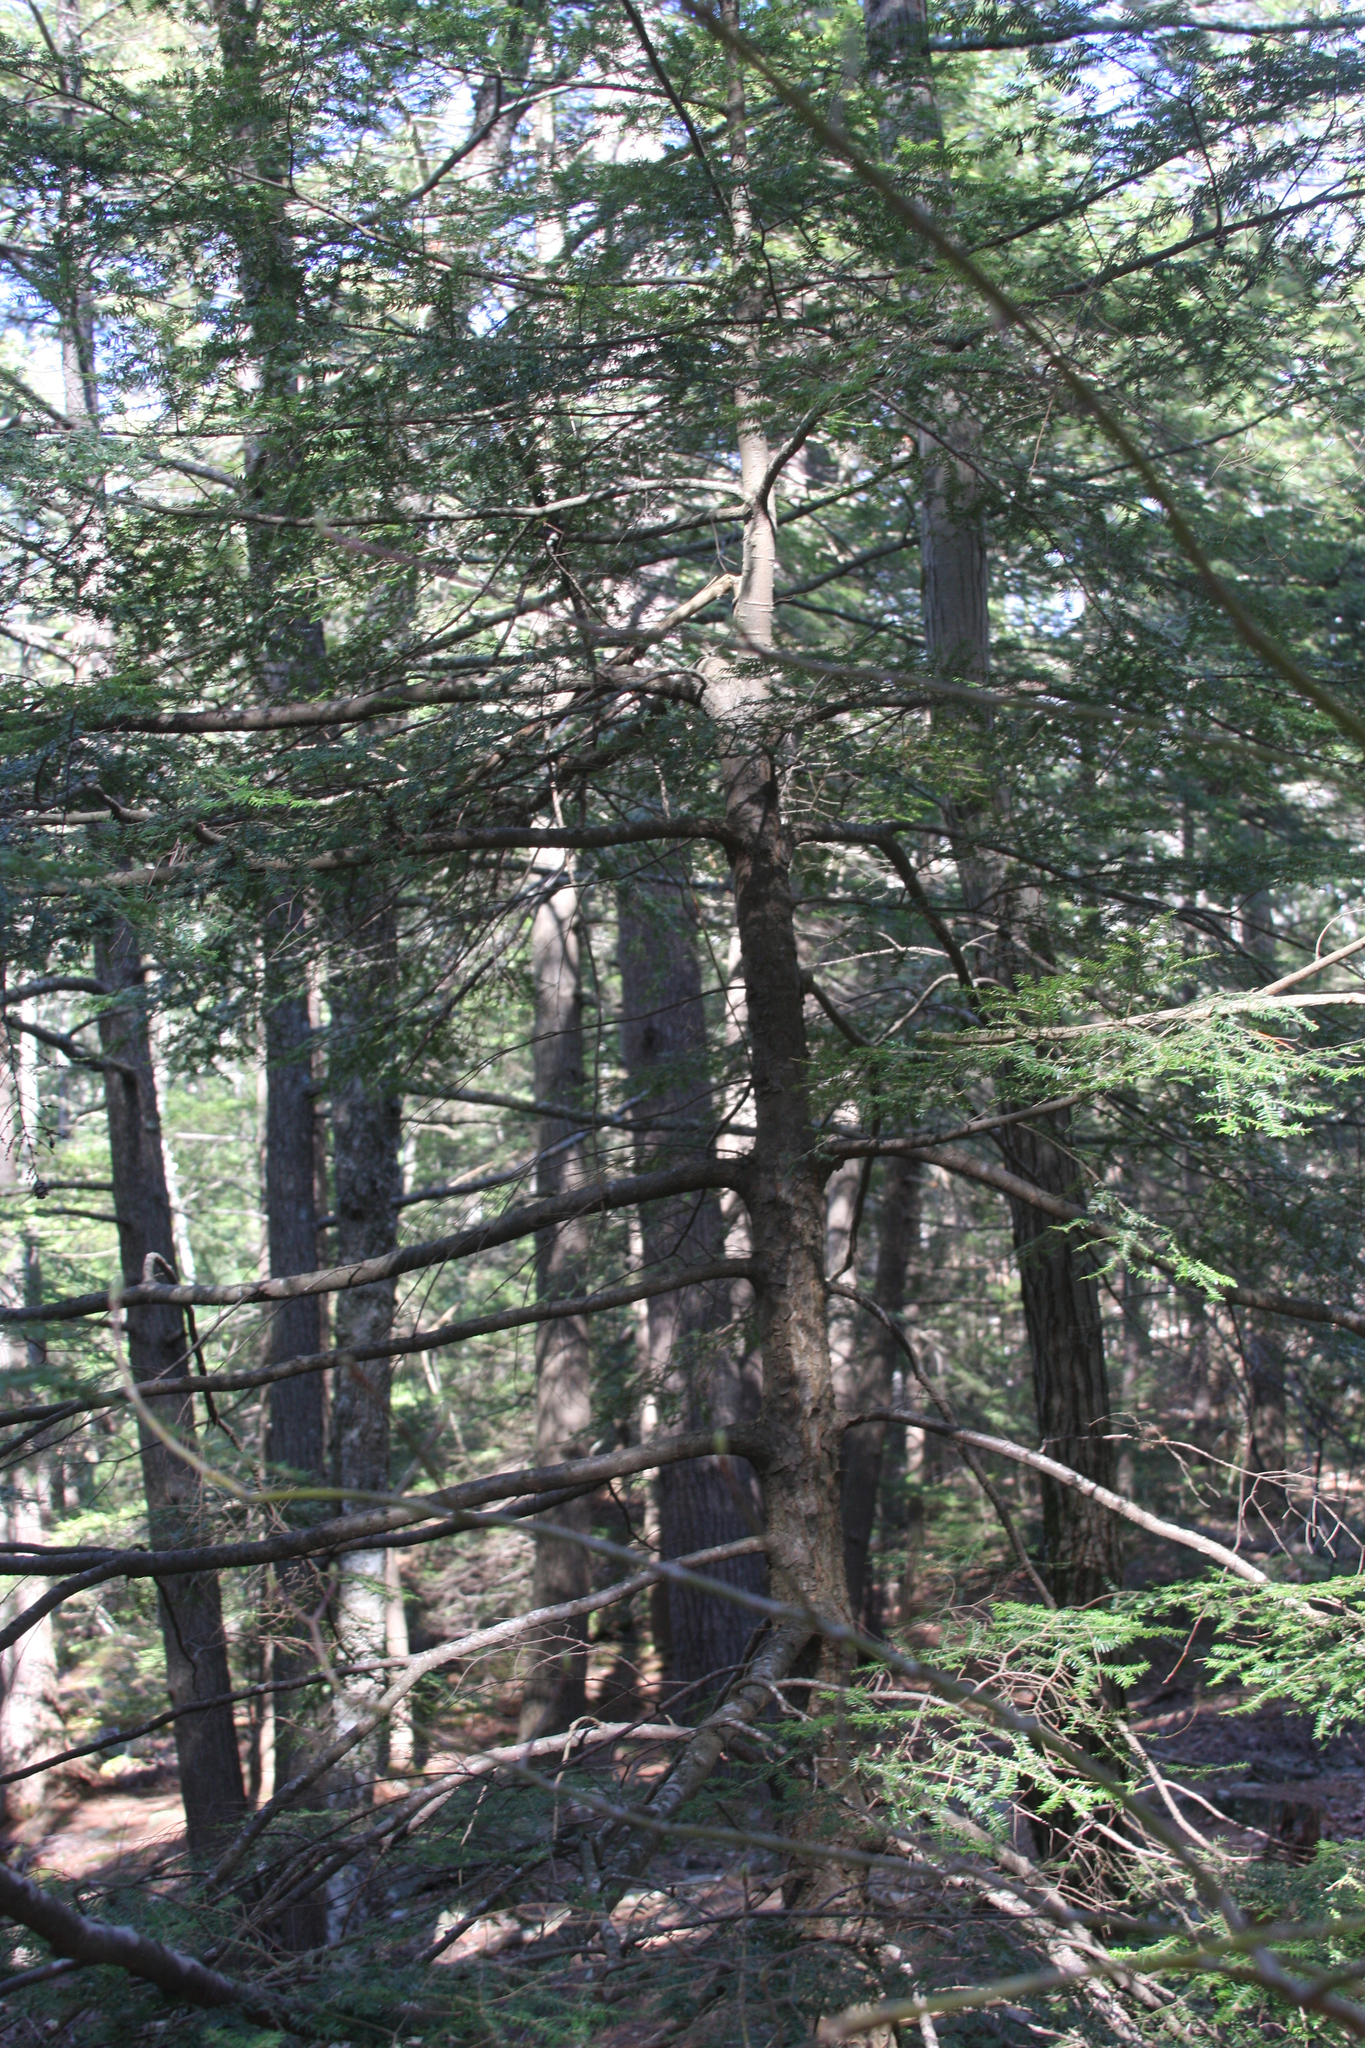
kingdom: Plantae
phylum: Tracheophyta
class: Pinopsida
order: Pinales
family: Pinaceae
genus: Tsuga
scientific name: Tsuga canadensis
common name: Eastern hemlock
